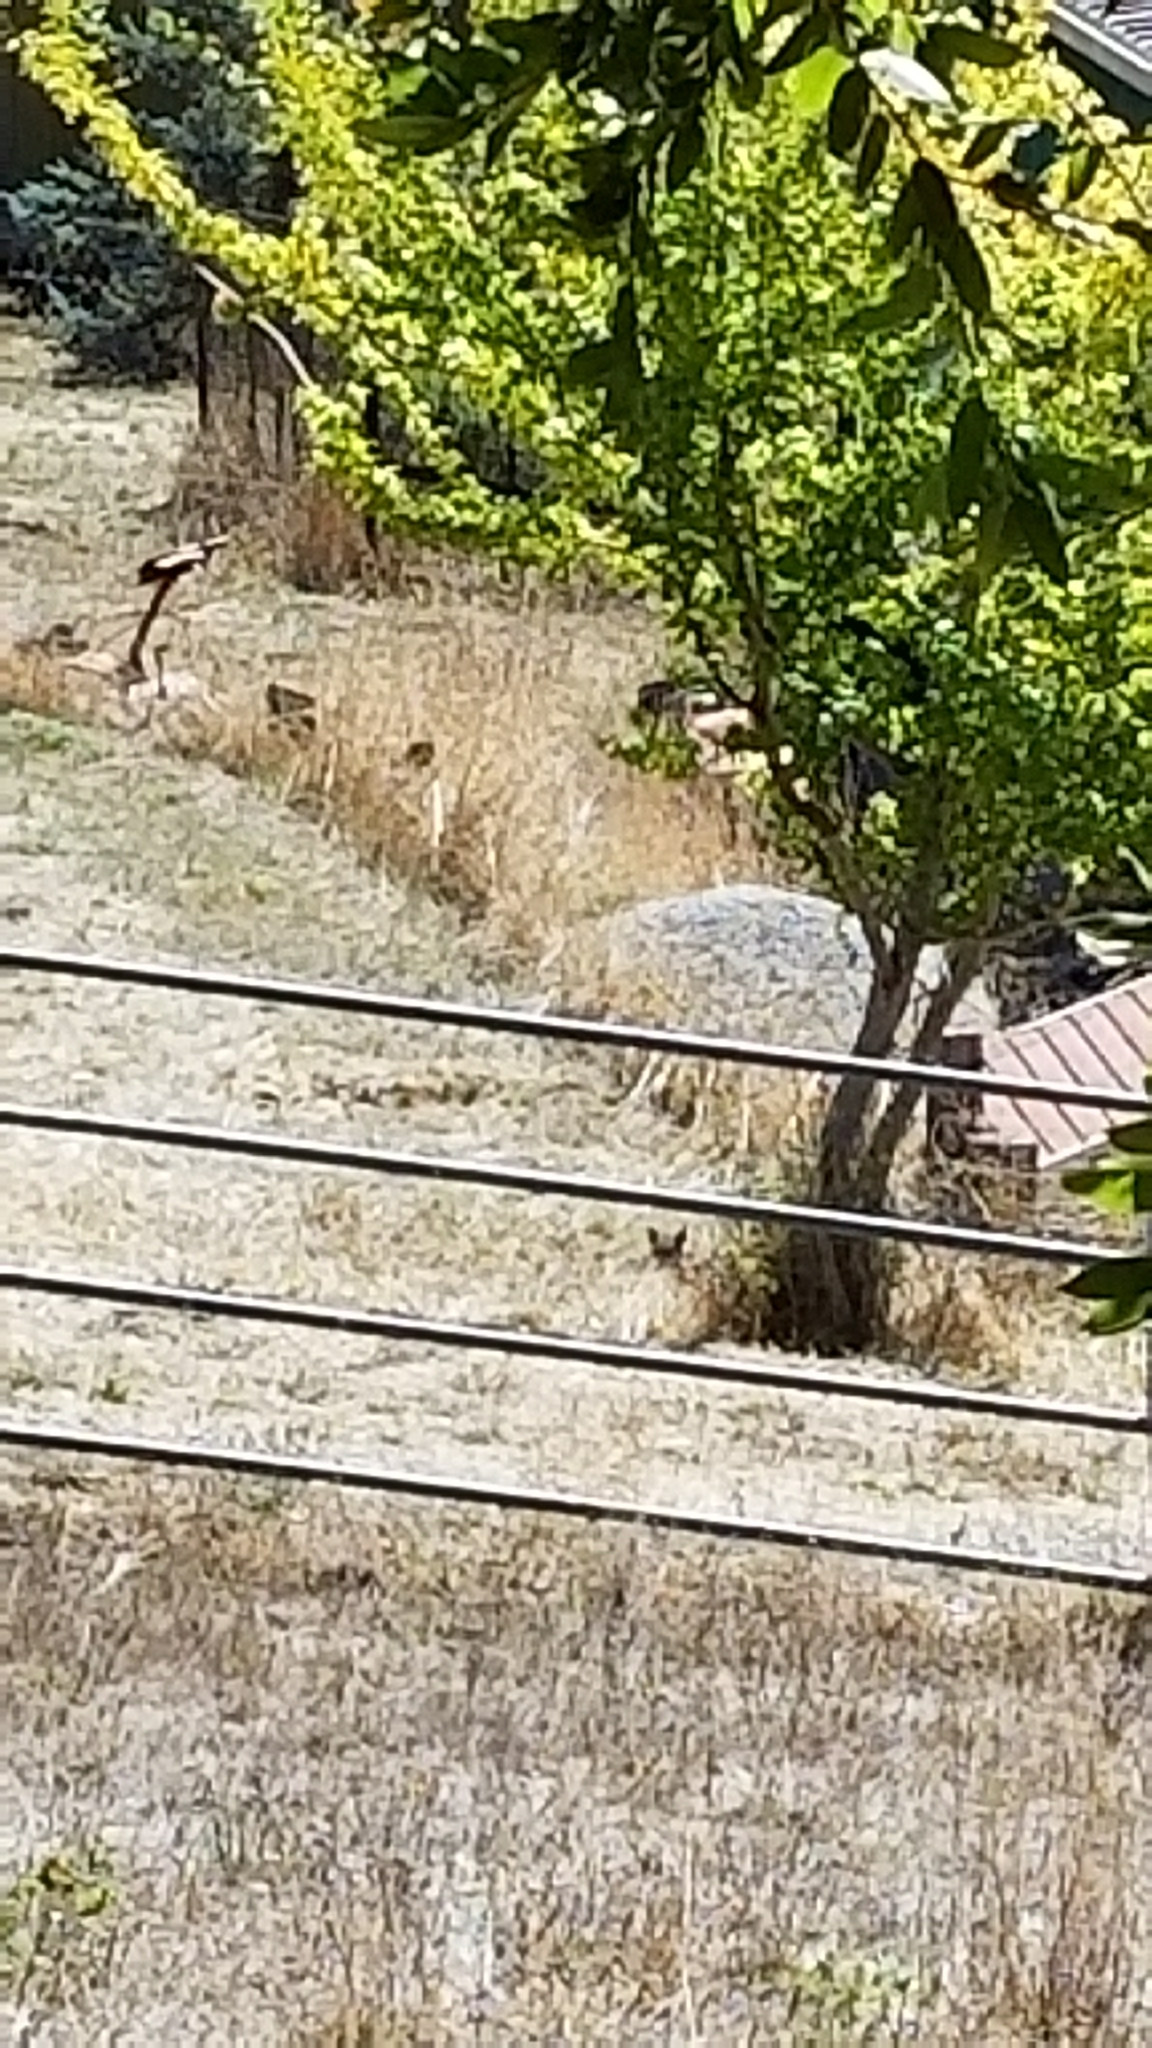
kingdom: Animalia
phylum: Chordata
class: Mammalia
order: Carnivora
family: Felidae
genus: Lynx
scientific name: Lynx rufus
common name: Bobcat
